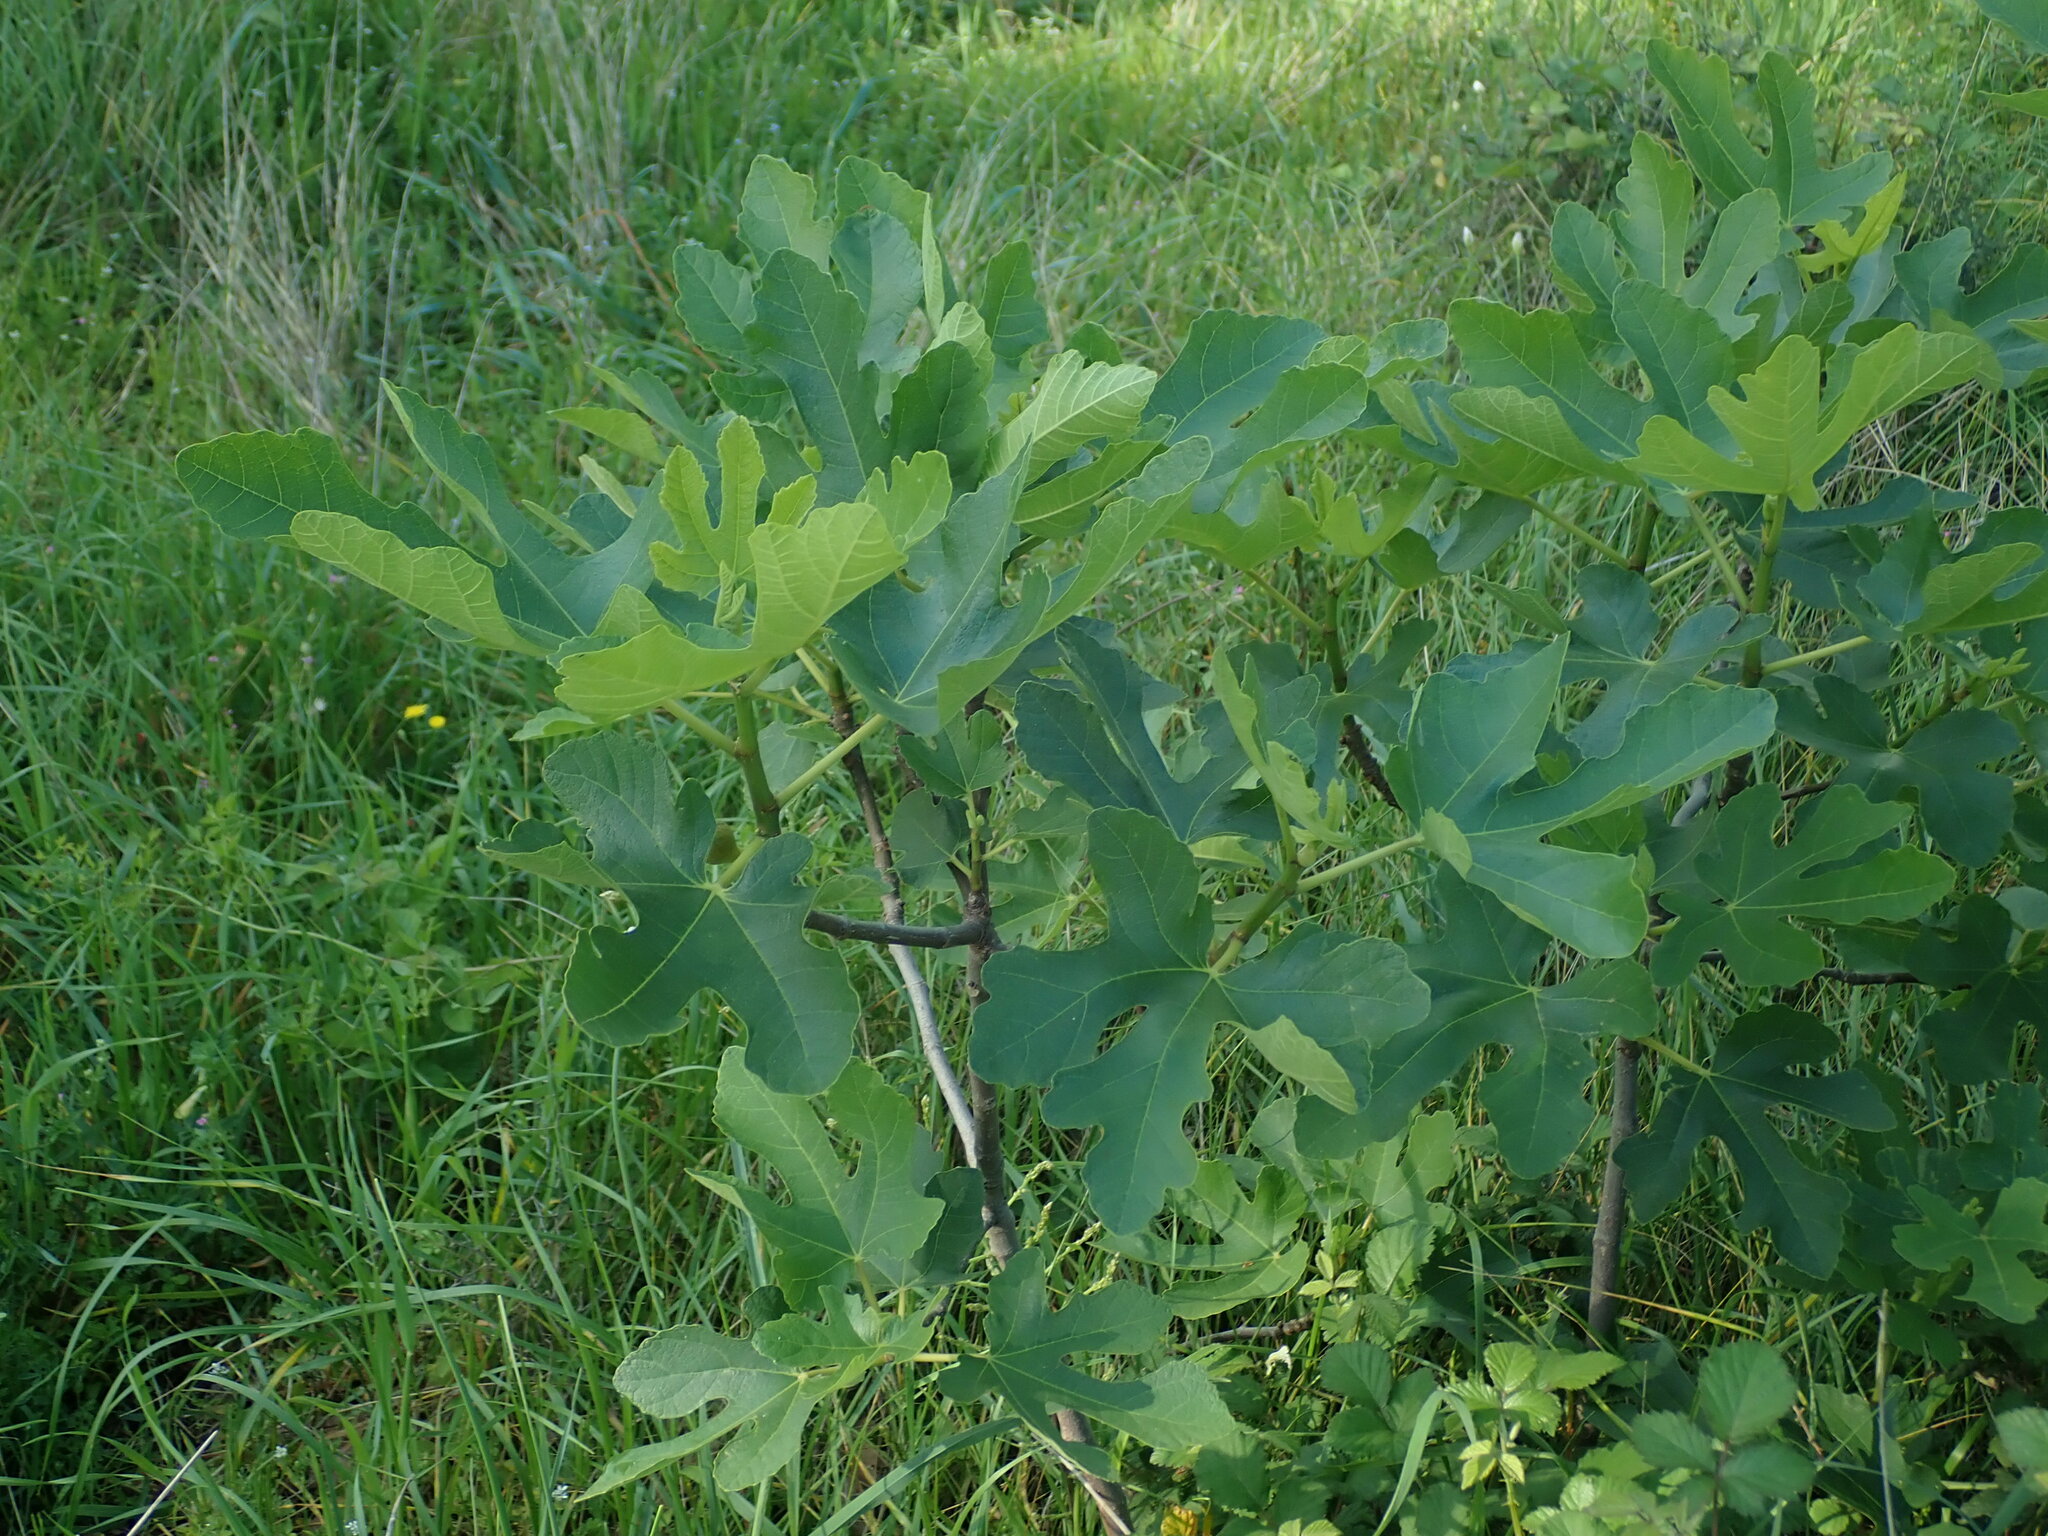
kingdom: Plantae
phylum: Tracheophyta
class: Magnoliopsida
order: Rosales
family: Moraceae
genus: Ficus
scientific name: Ficus carica
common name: Fig
